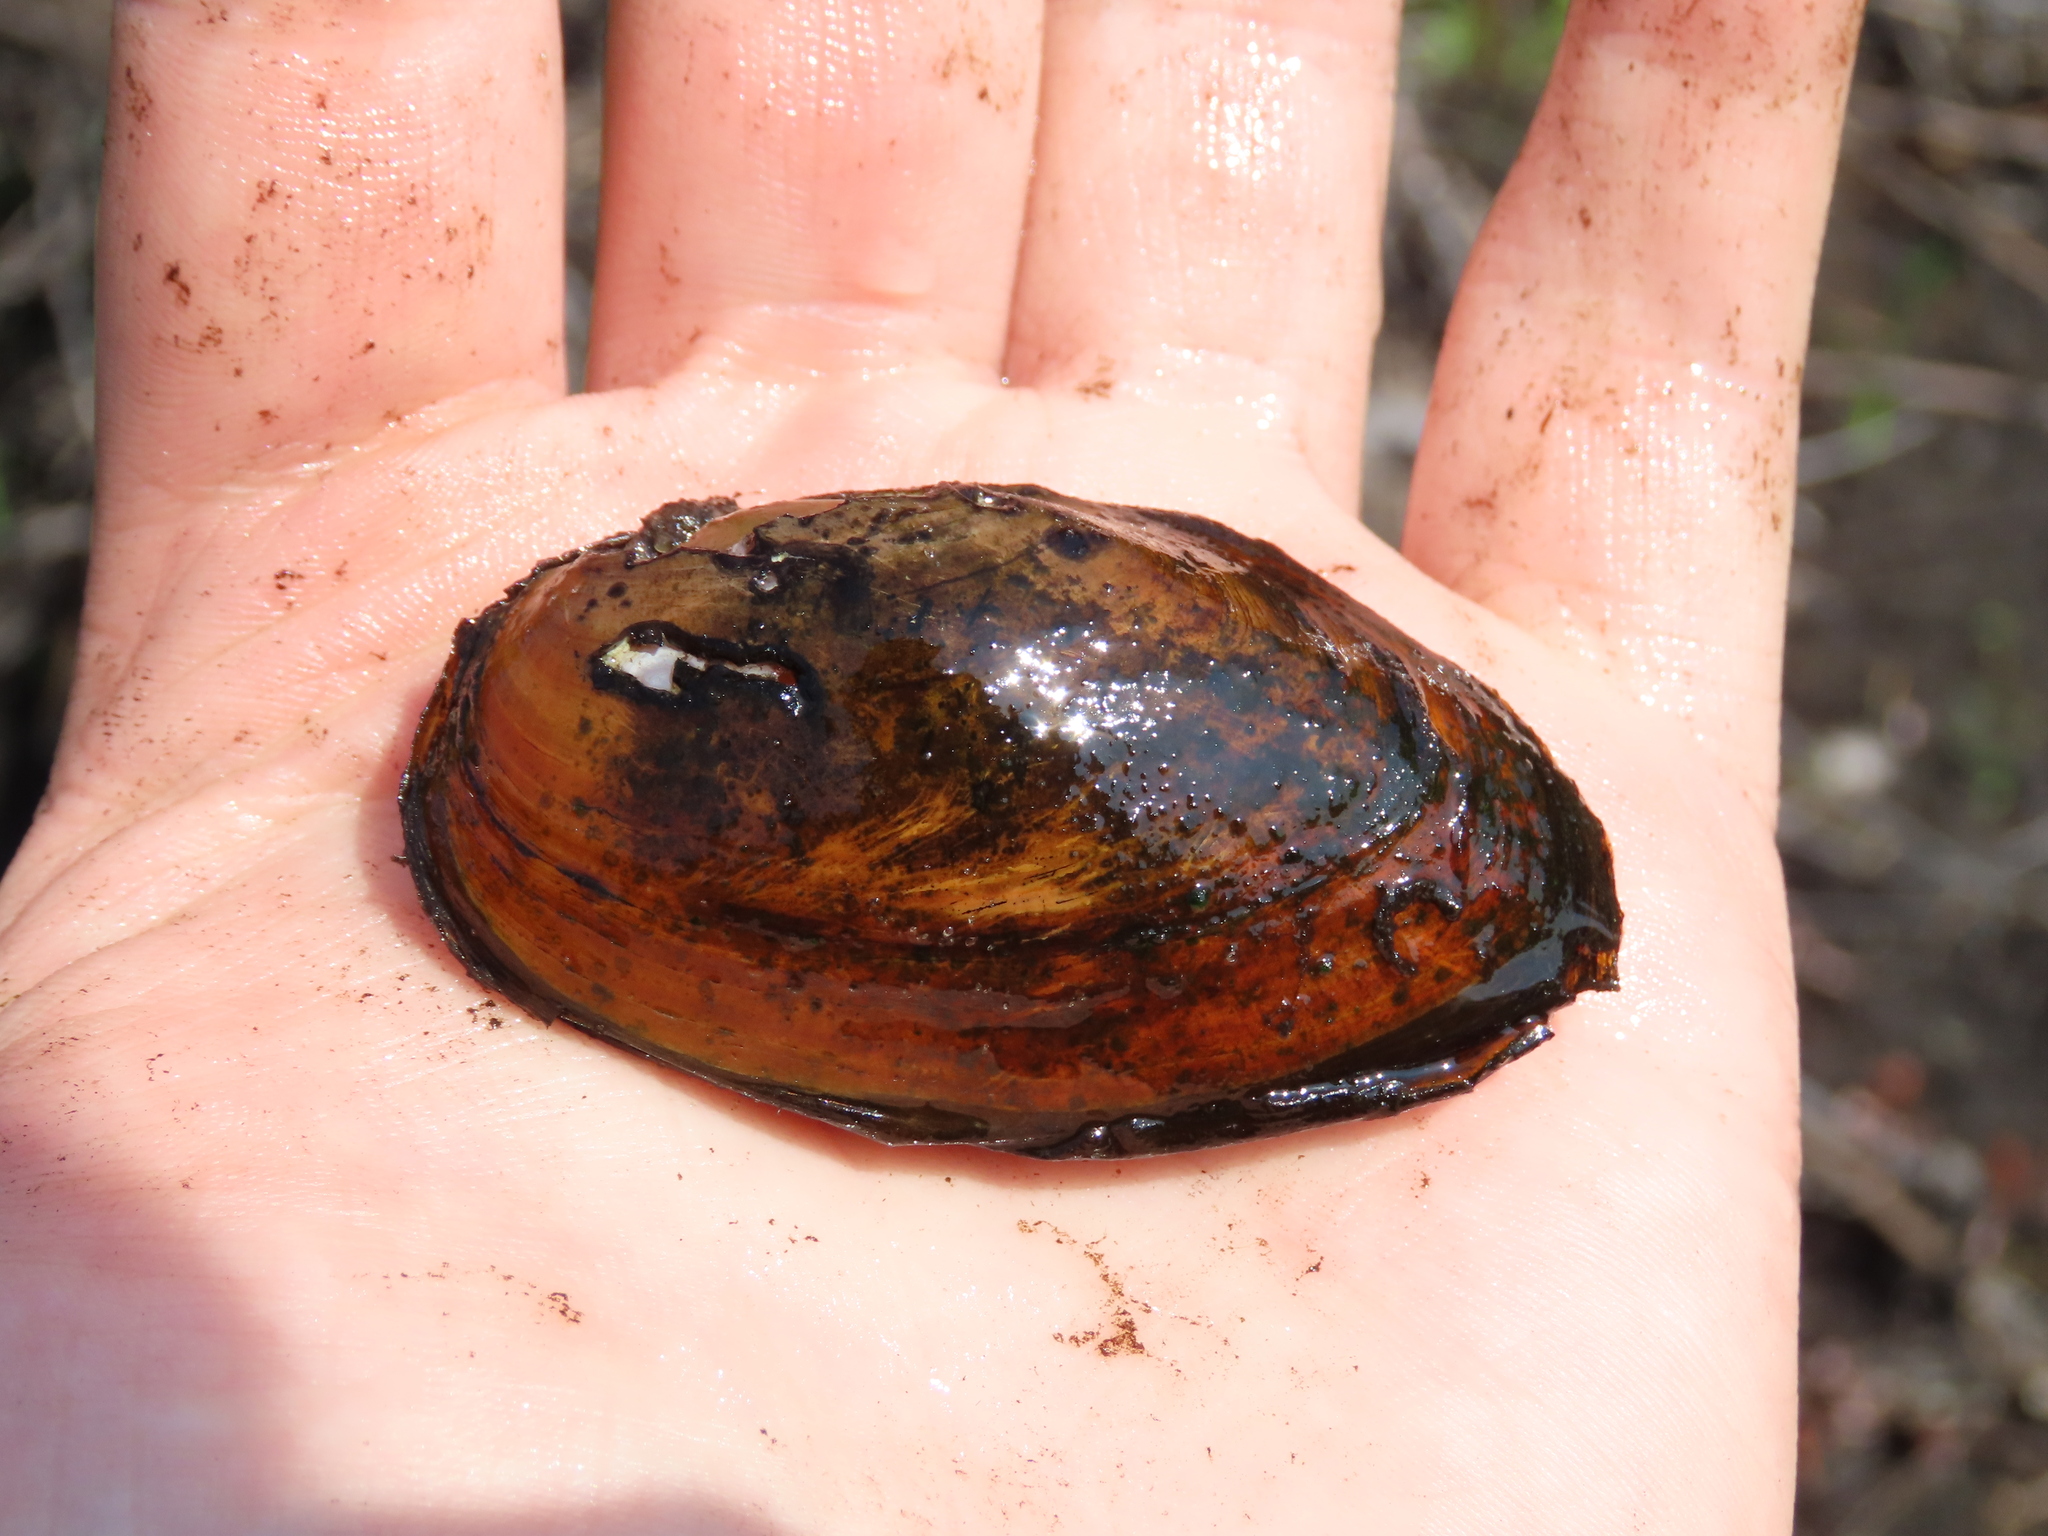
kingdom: Animalia
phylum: Mollusca
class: Bivalvia
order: Unionida
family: Unionidae
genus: Elliptio
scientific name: Elliptio jayensis
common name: Florida spike
